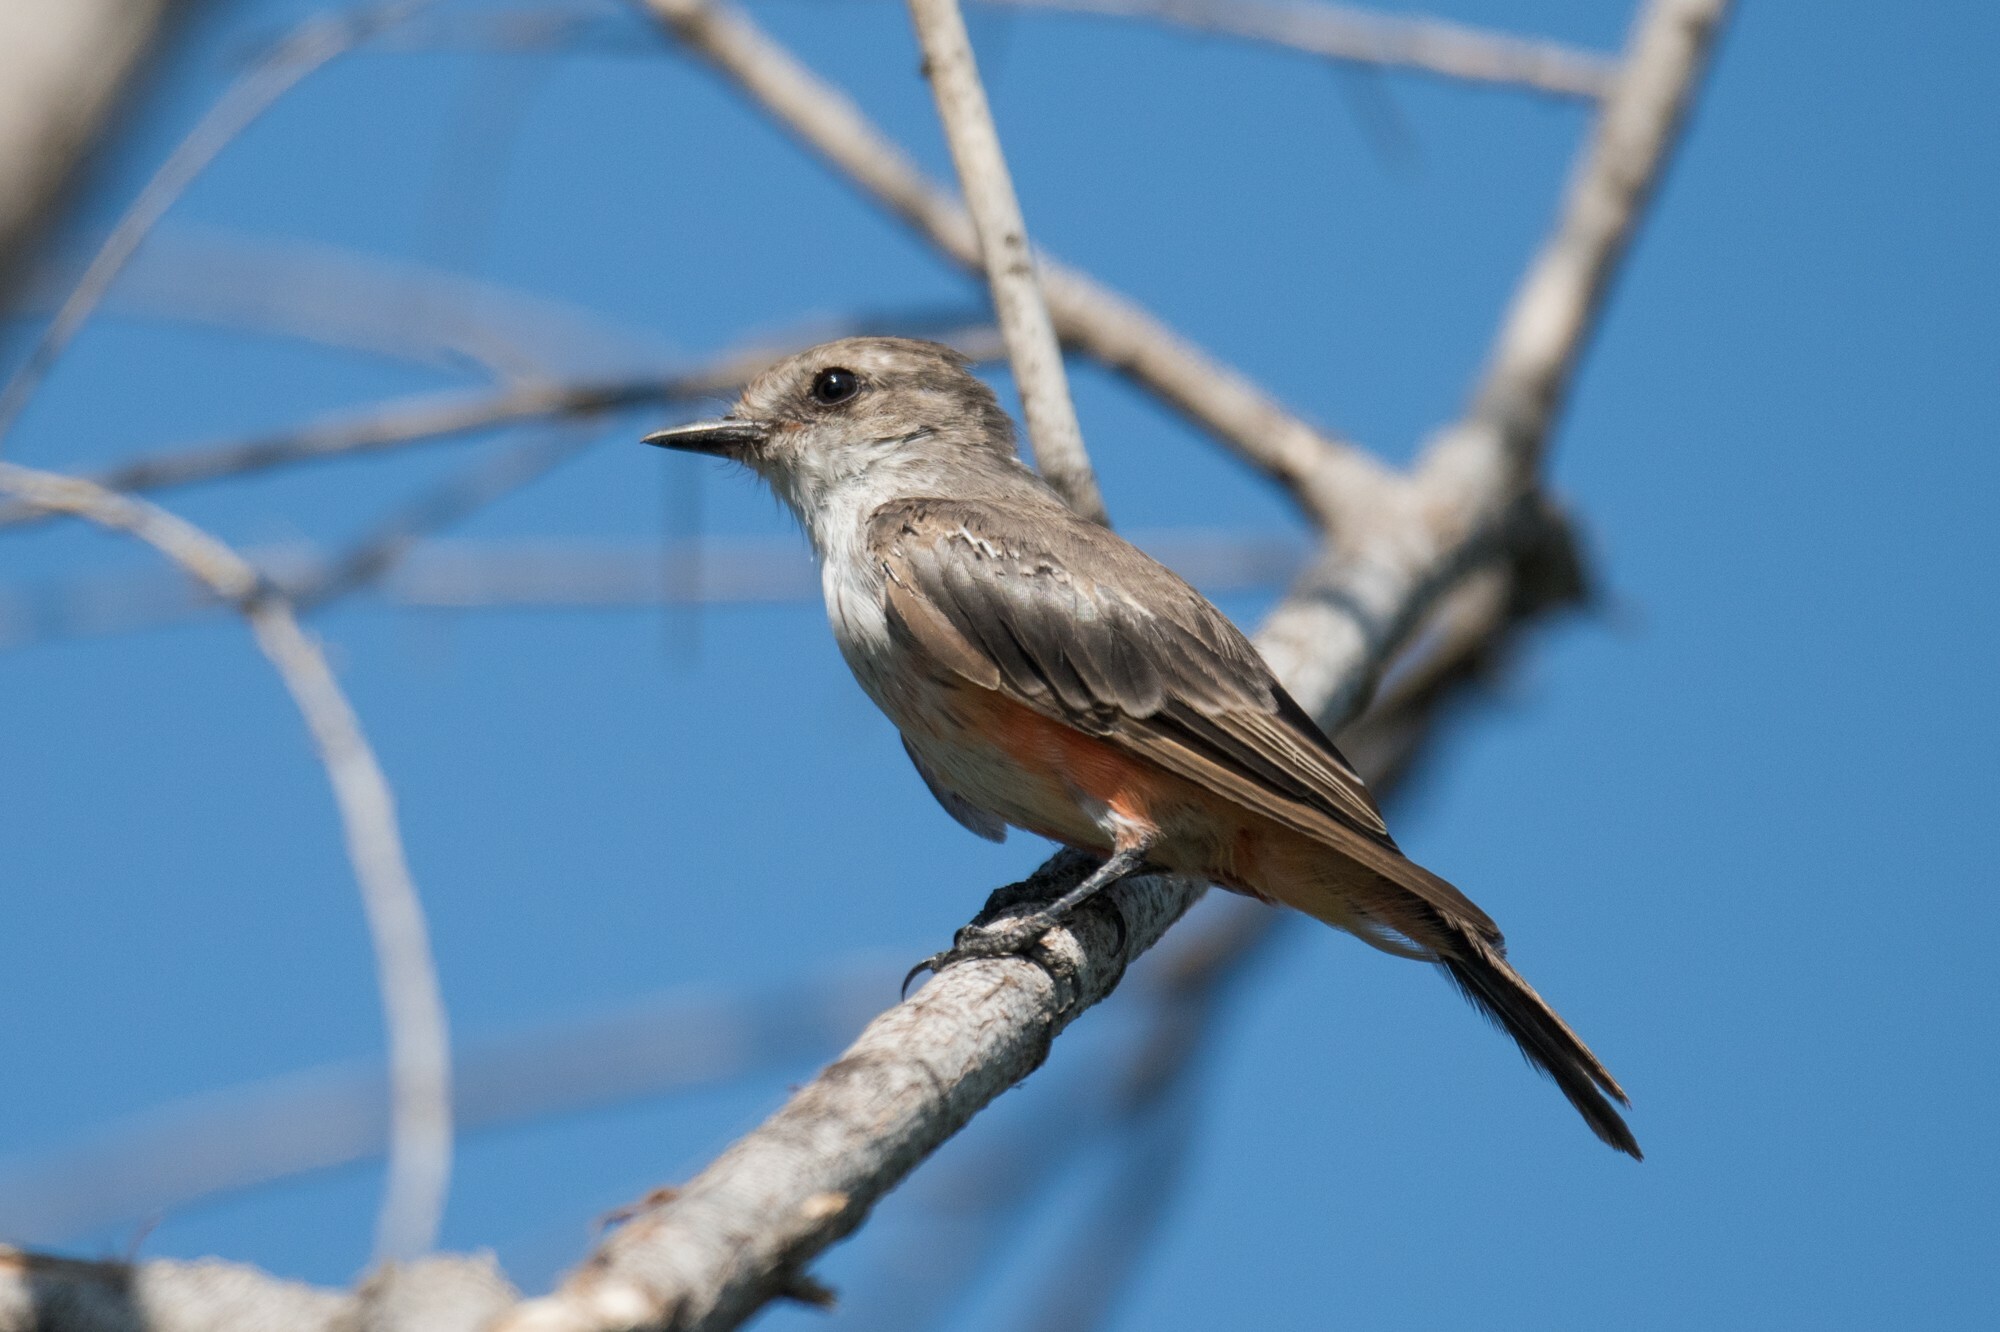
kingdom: Animalia
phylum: Chordata
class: Aves
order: Passeriformes
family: Tyrannidae
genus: Pyrocephalus
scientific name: Pyrocephalus rubinus
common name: Vermilion flycatcher
